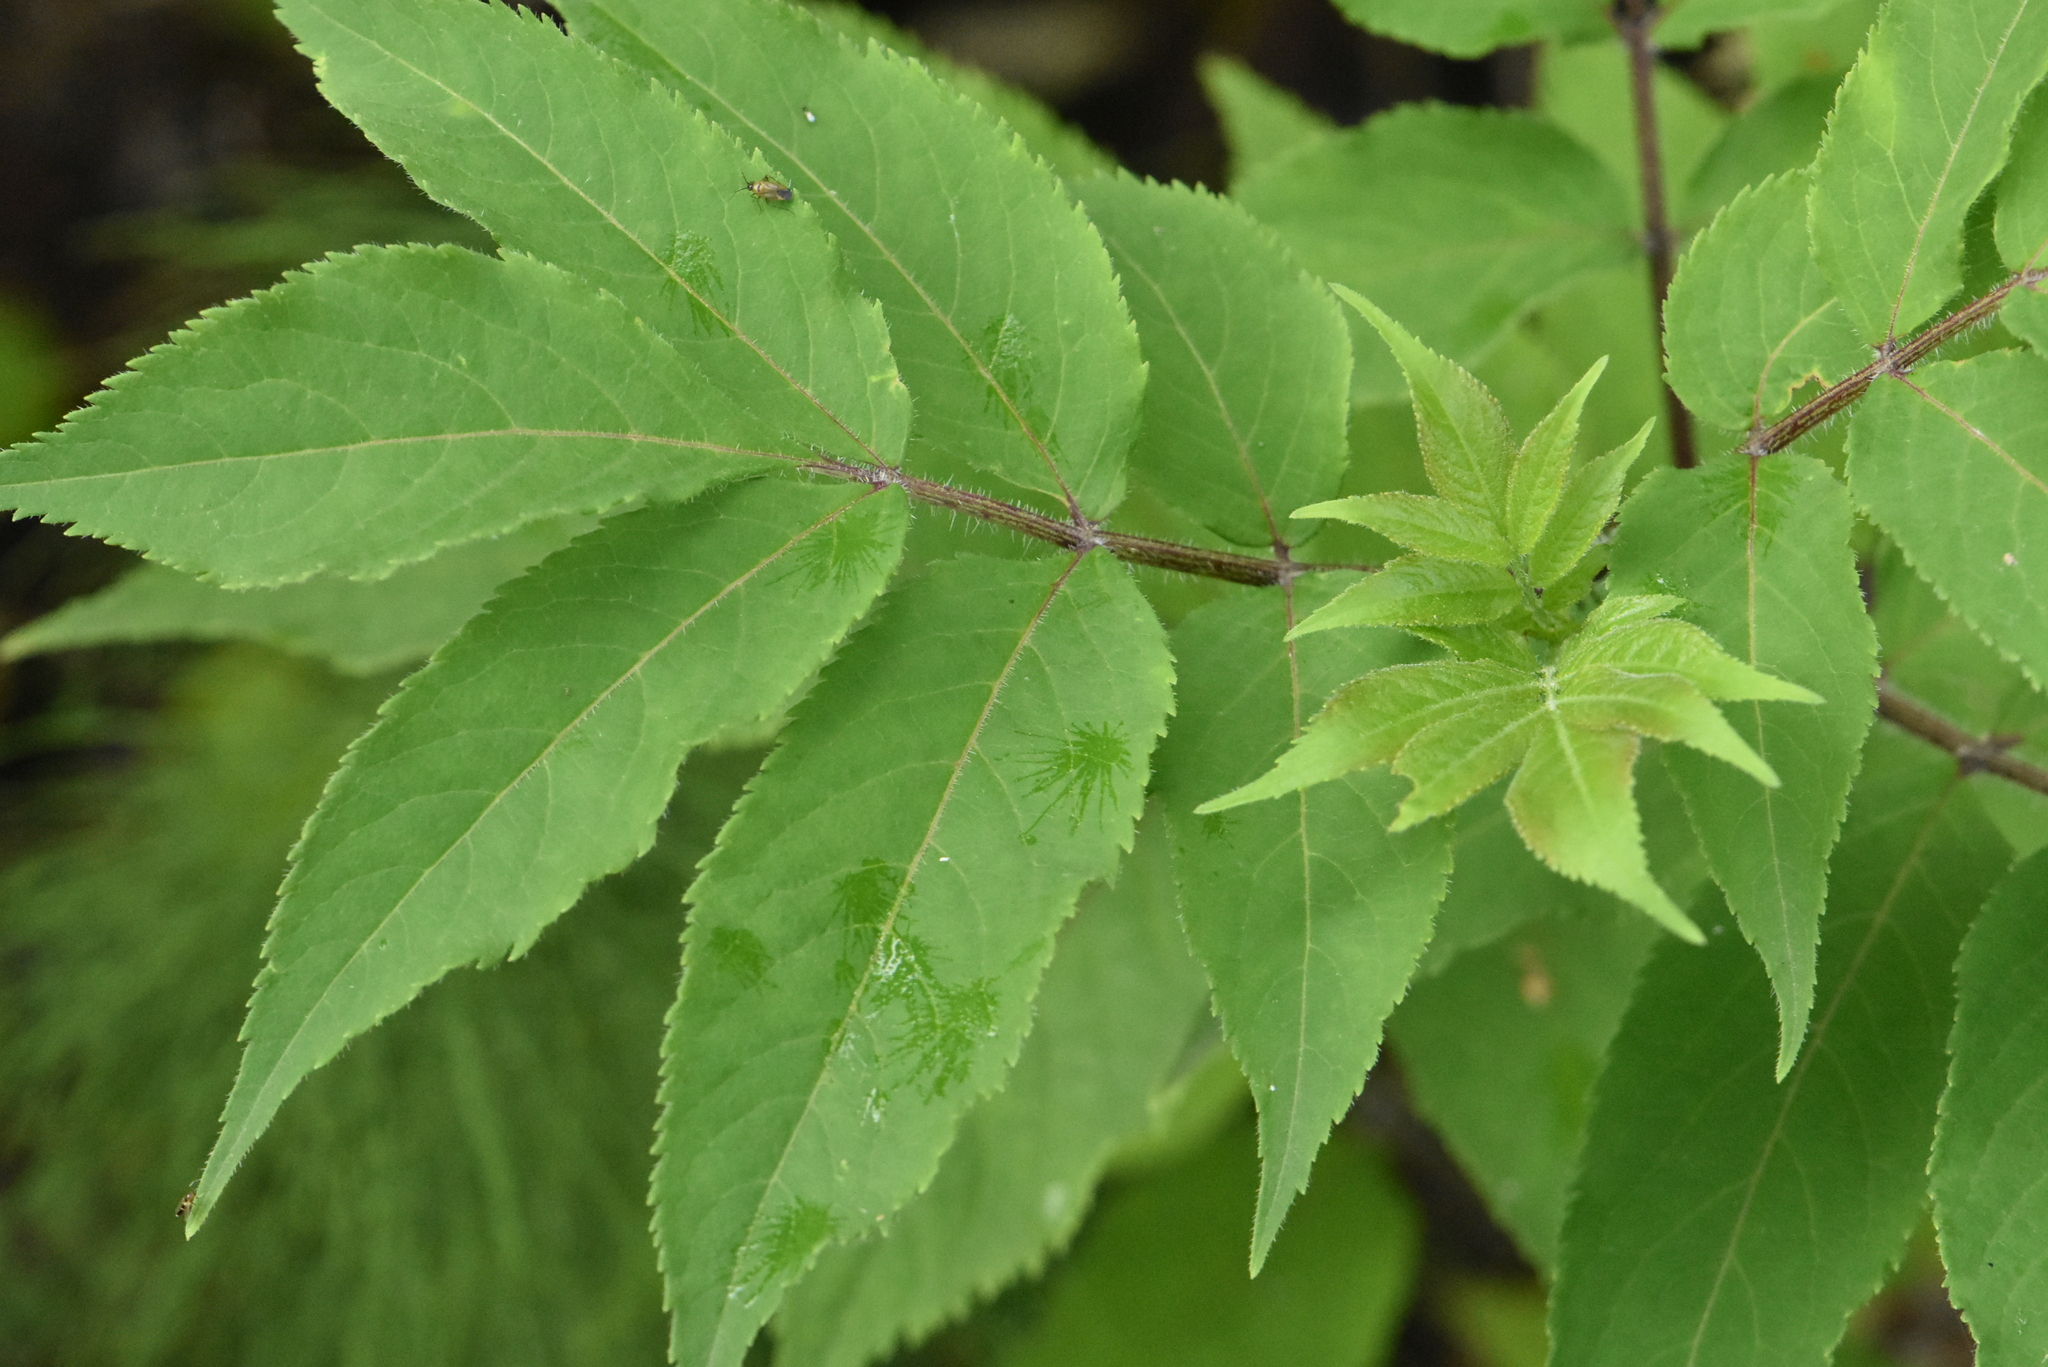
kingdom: Plantae
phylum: Tracheophyta
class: Magnoliopsida
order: Dipsacales
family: Viburnaceae
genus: Sambucus
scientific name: Sambucus racemosa
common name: Red-berried elder
